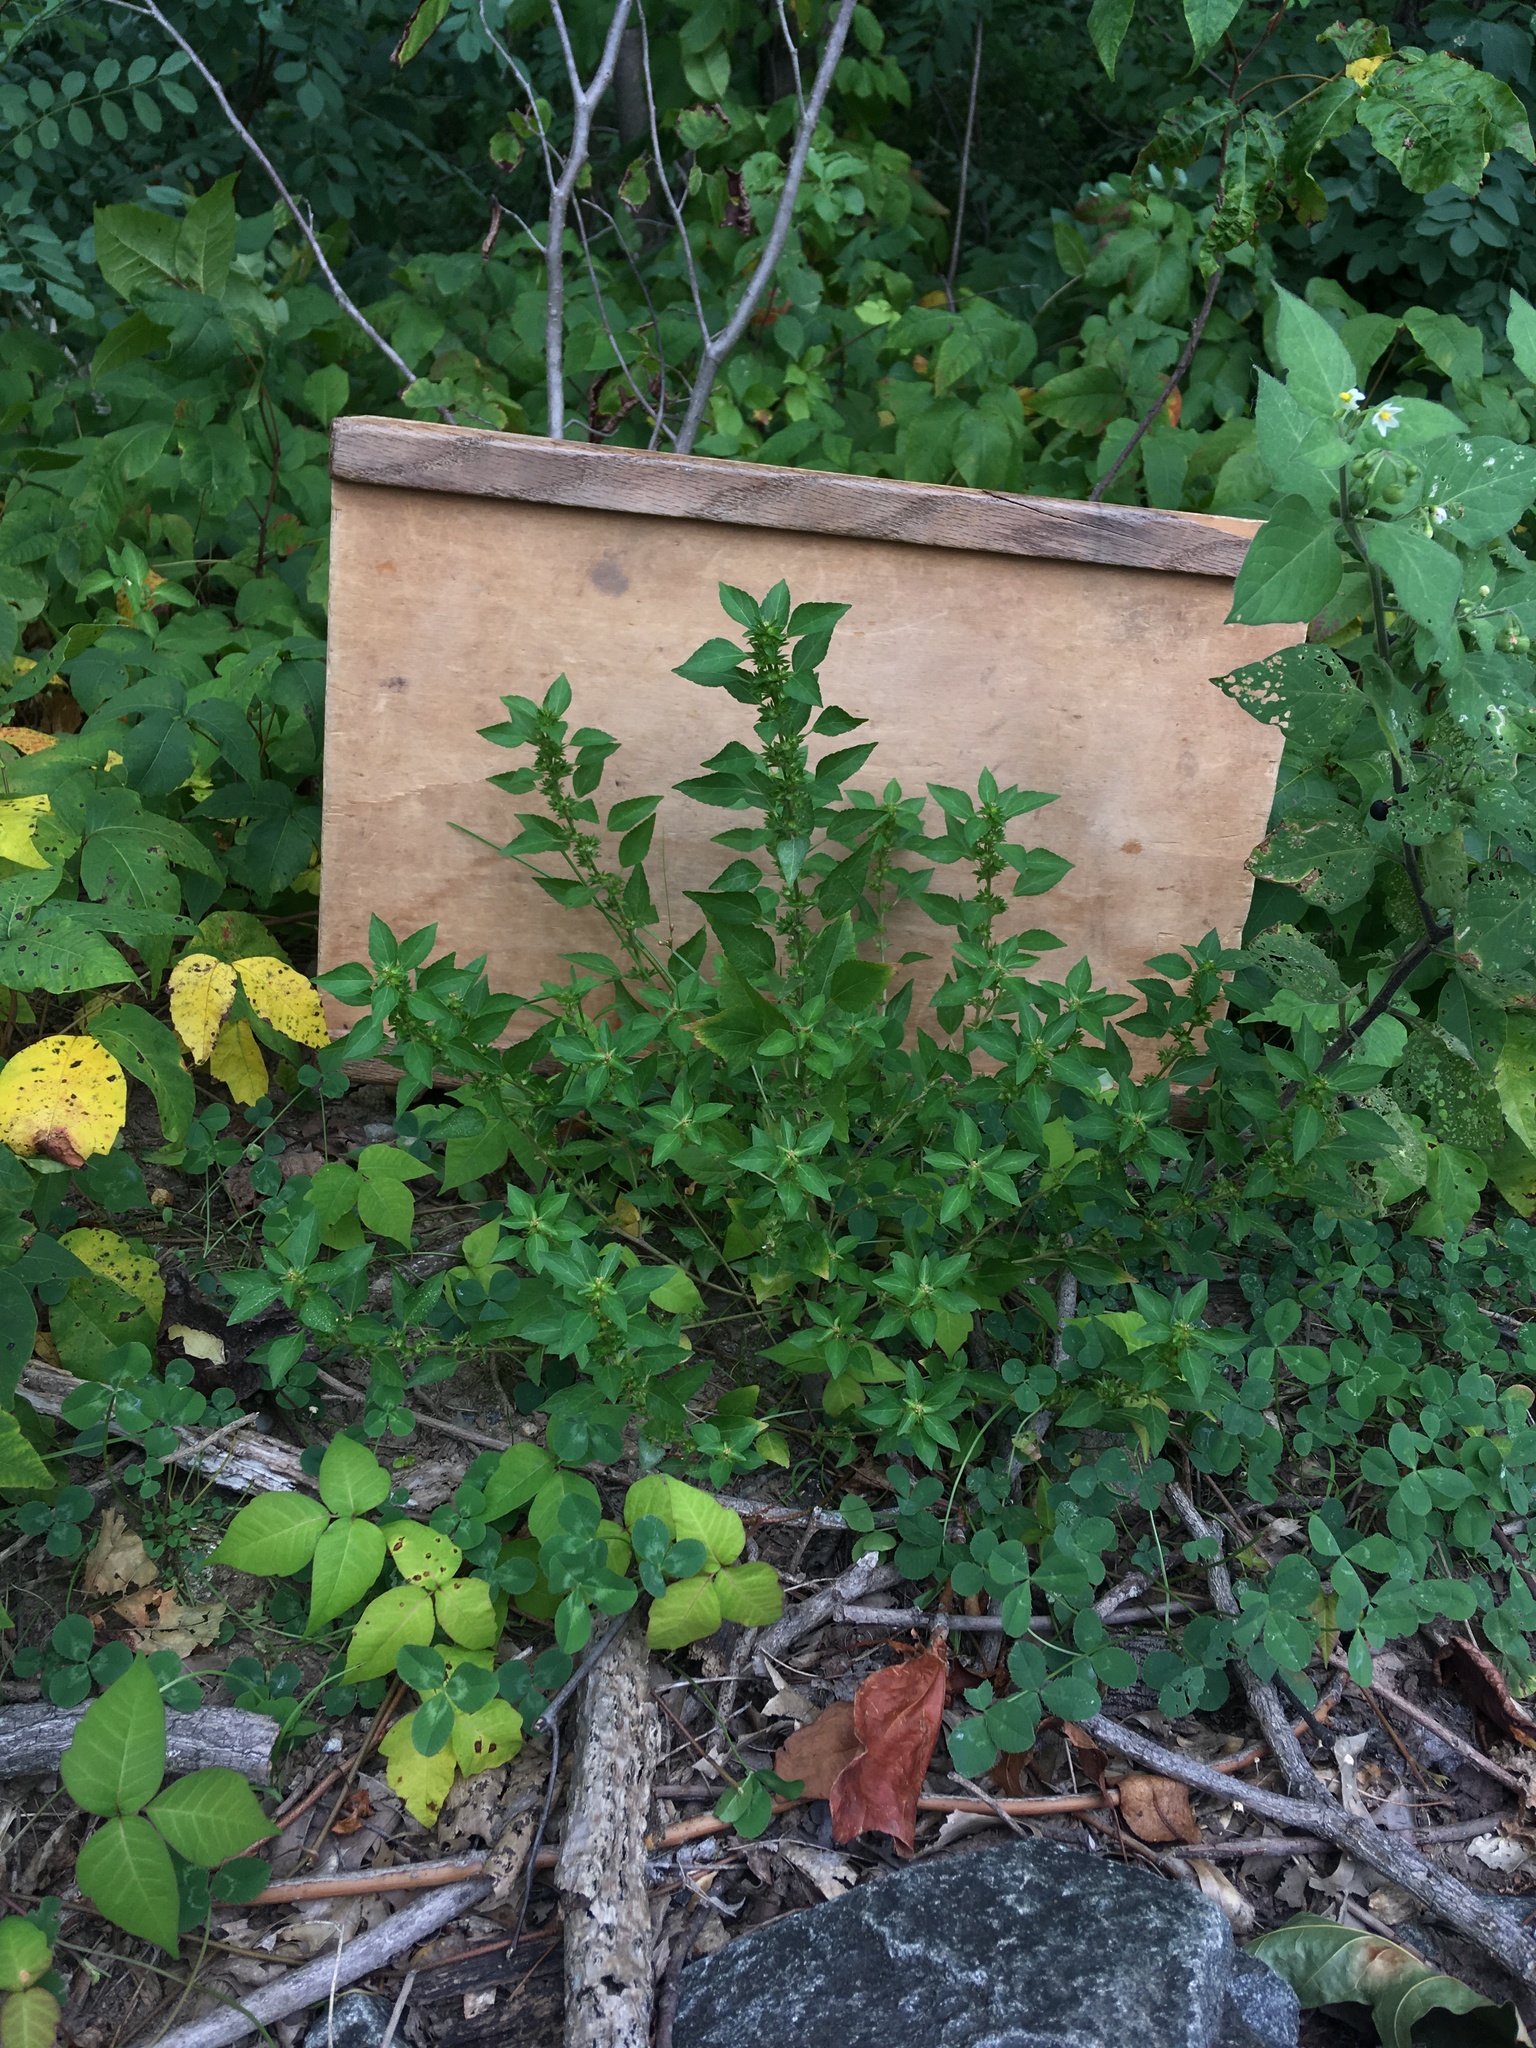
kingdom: Plantae
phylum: Tracheophyta
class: Magnoliopsida
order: Malpighiales
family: Euphorbiaceae
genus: Acalypha
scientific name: Acalypha rhomboidea
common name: Rhombic copperleaf
